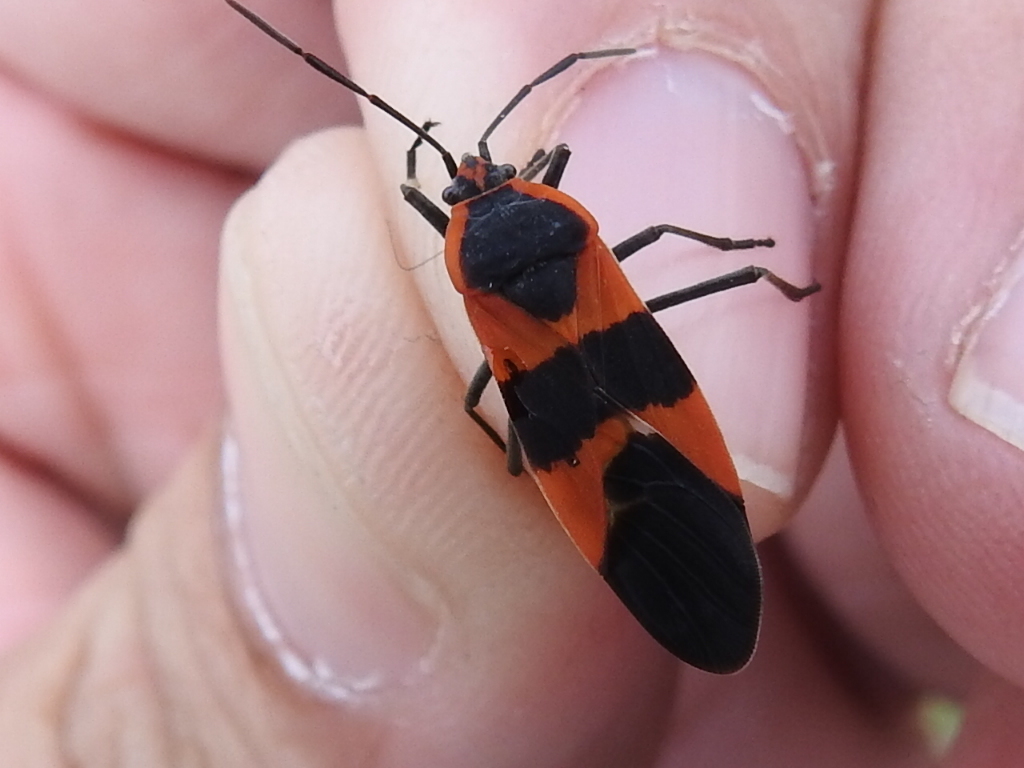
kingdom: Animalia
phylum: Arthropoda
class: Insecta
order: Hemiptera
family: Lygaeidae
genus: Oncopeltus
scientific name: Oncopeltus fasciatus
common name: Large milkweed bug
